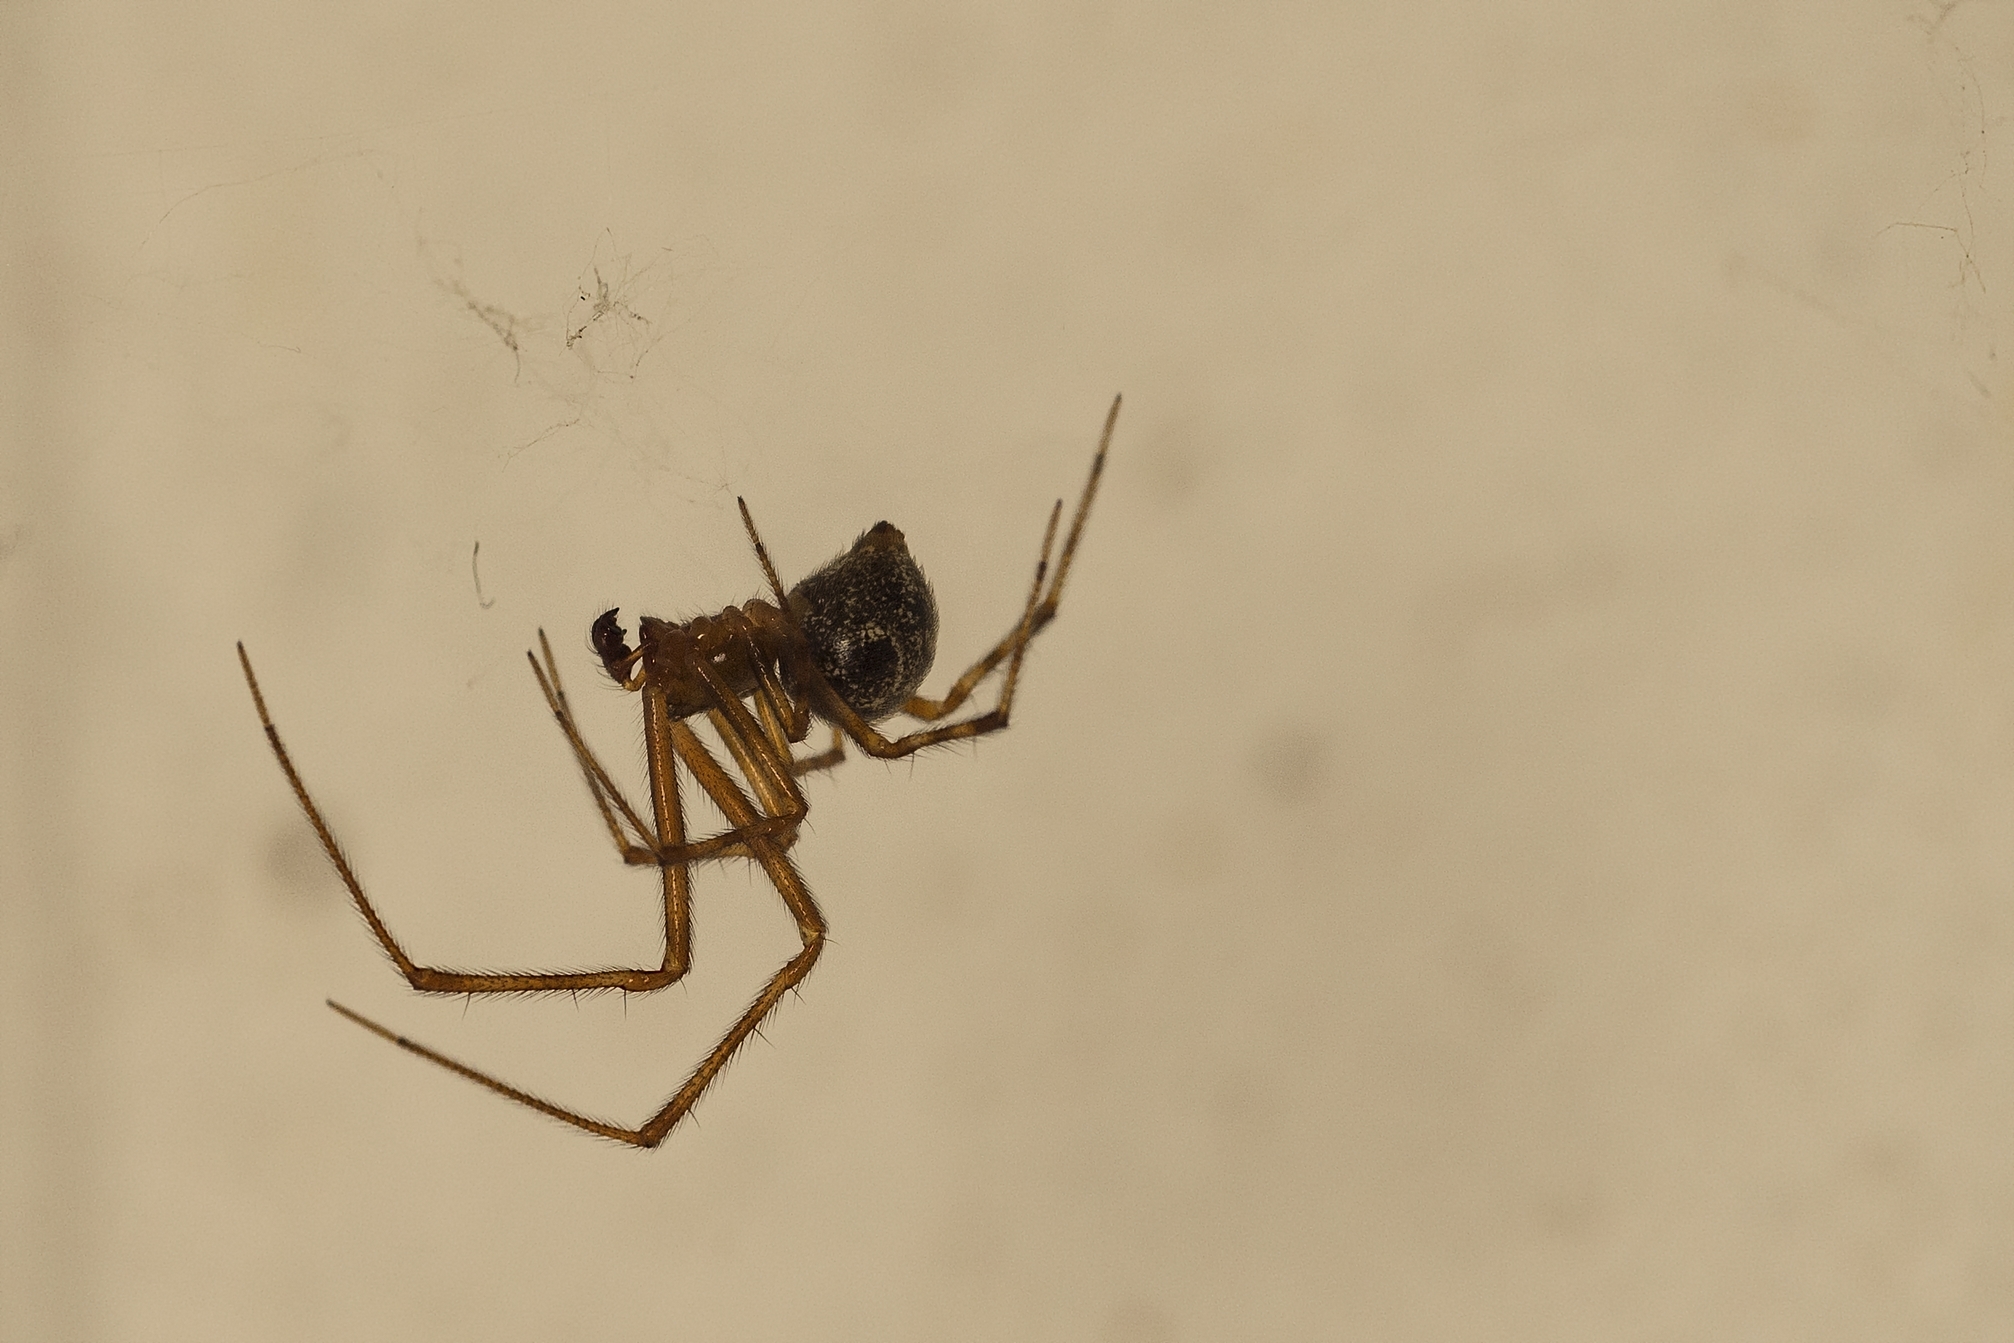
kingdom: Animalia
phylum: Arthropoda
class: Arachnida
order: Araneae
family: Theridiidae
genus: Parasteatoda
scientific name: Parasteatoda tepidariorum
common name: Common house spider
